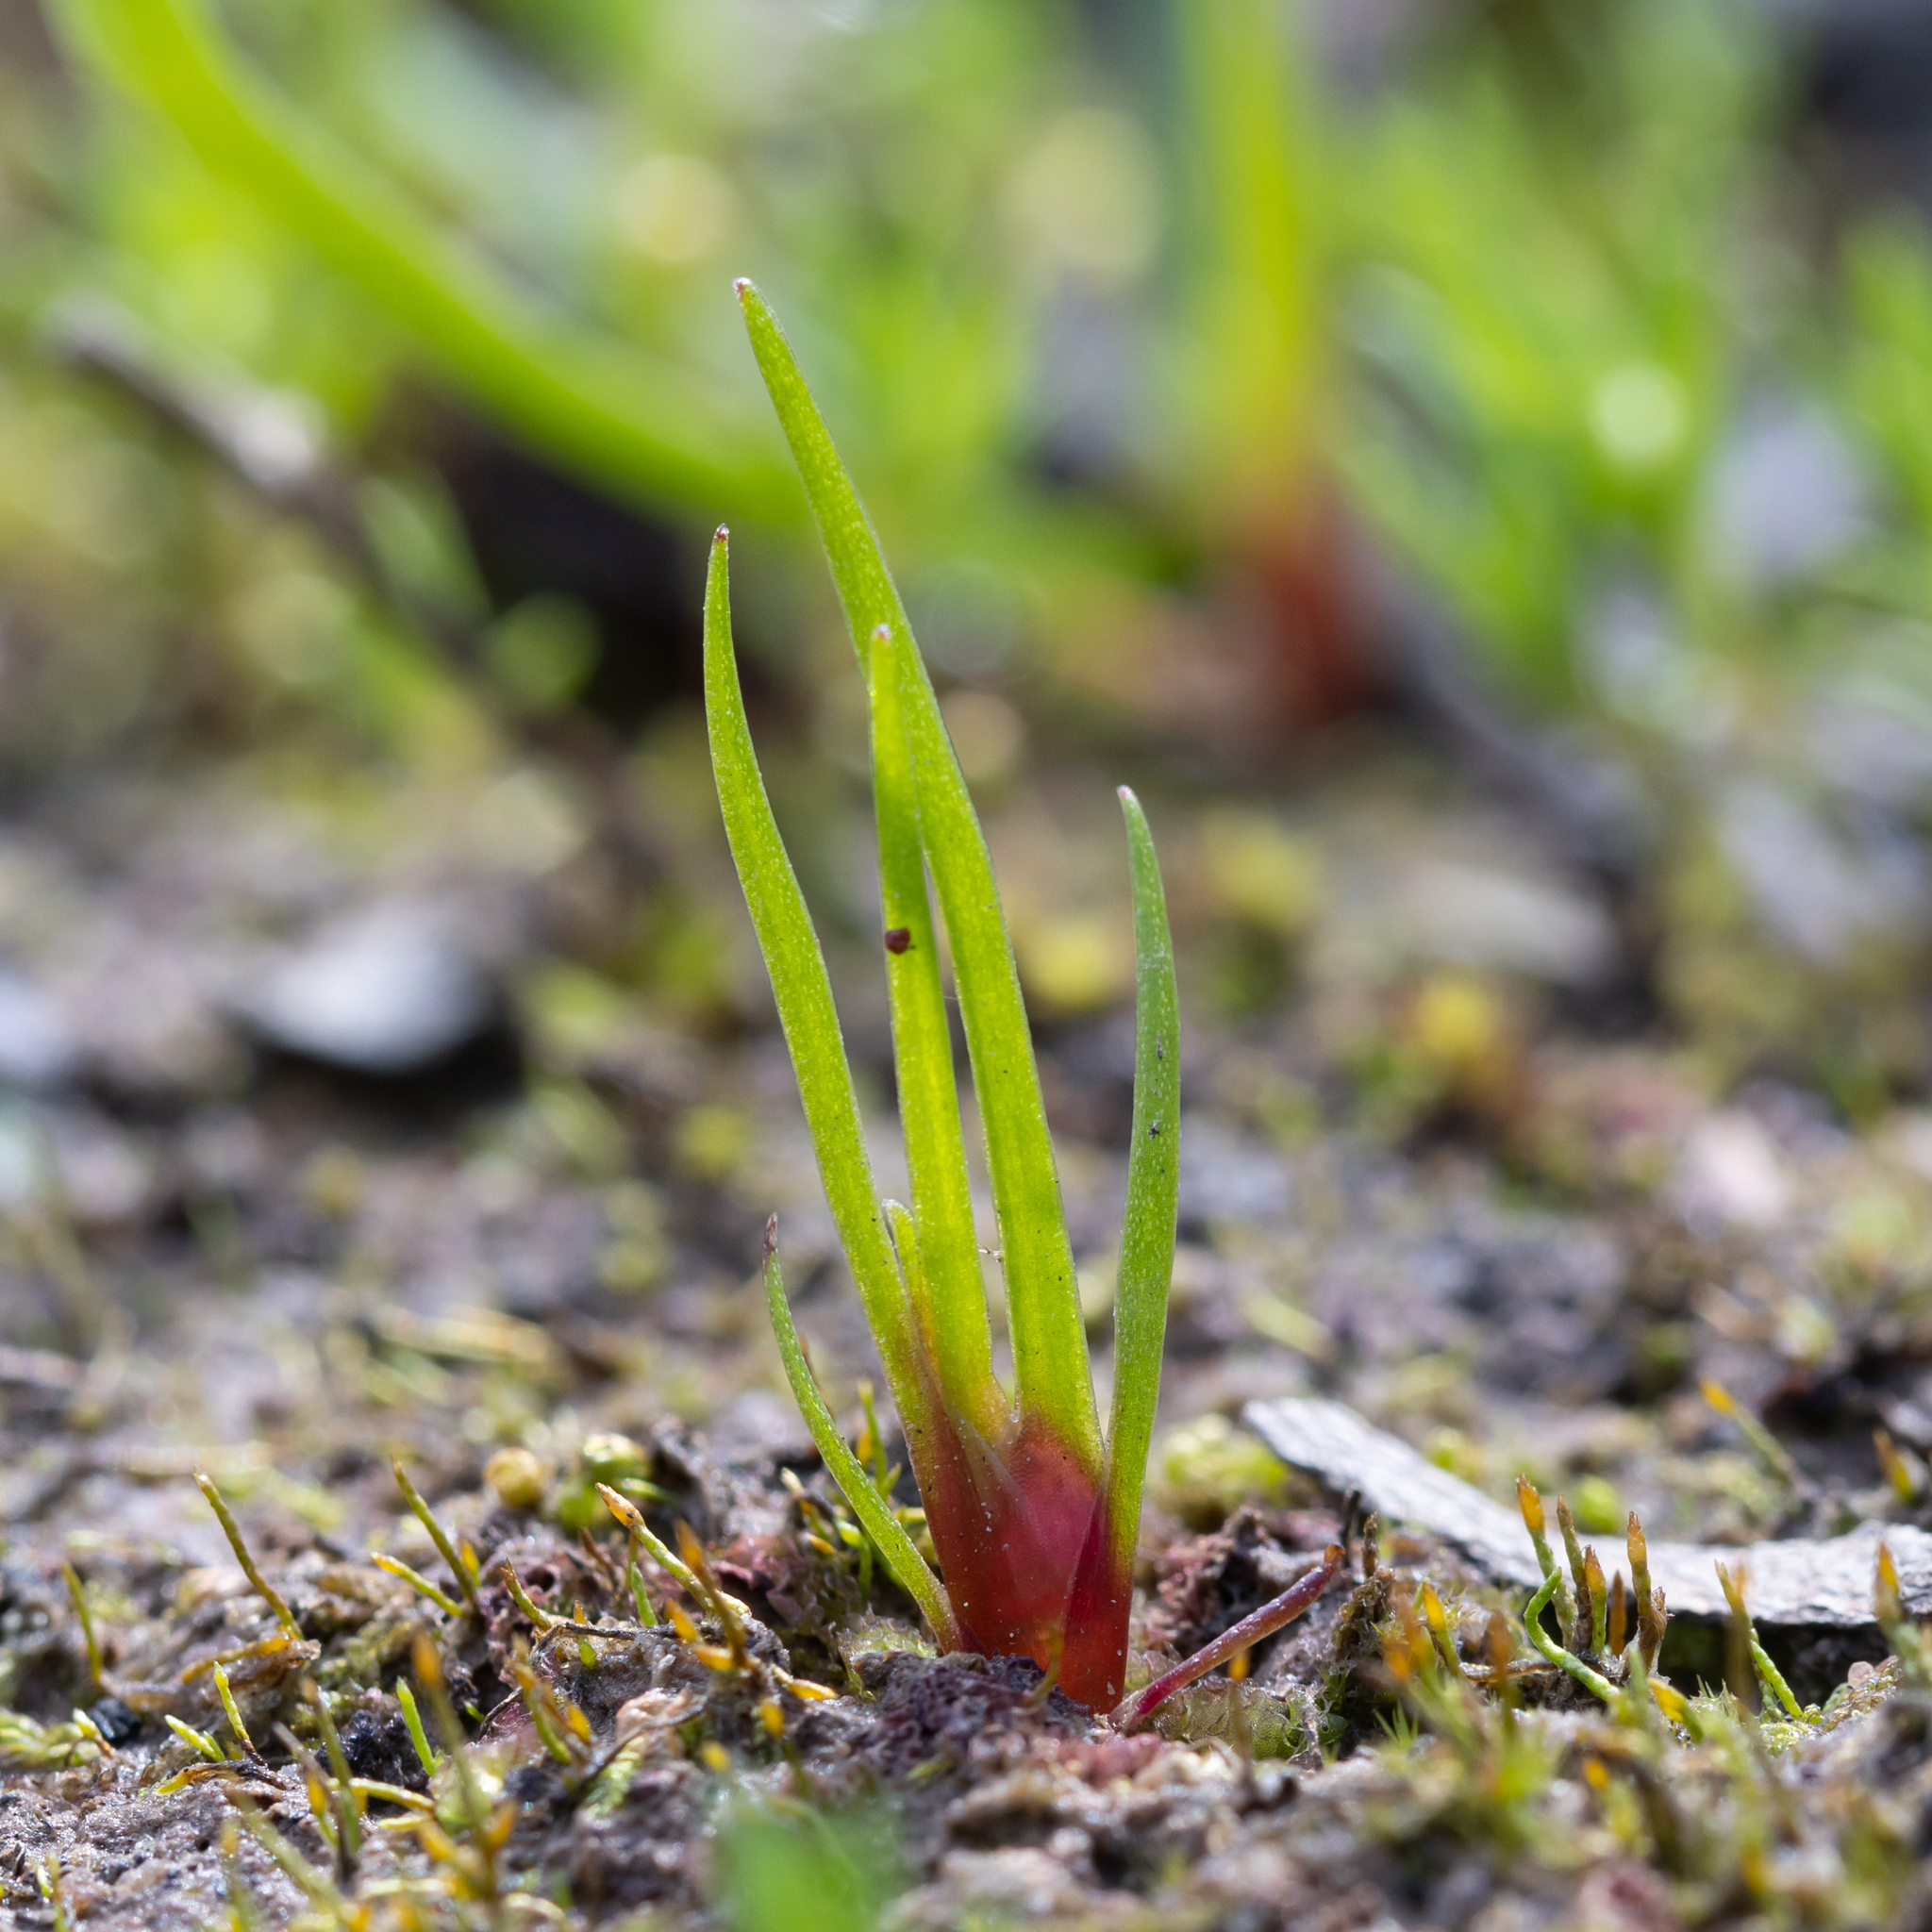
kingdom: Plantae
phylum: Tracheophyta
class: Liliopsida
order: Poales
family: Restionaceae
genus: Centrolepis
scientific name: Centrolepis aristata
